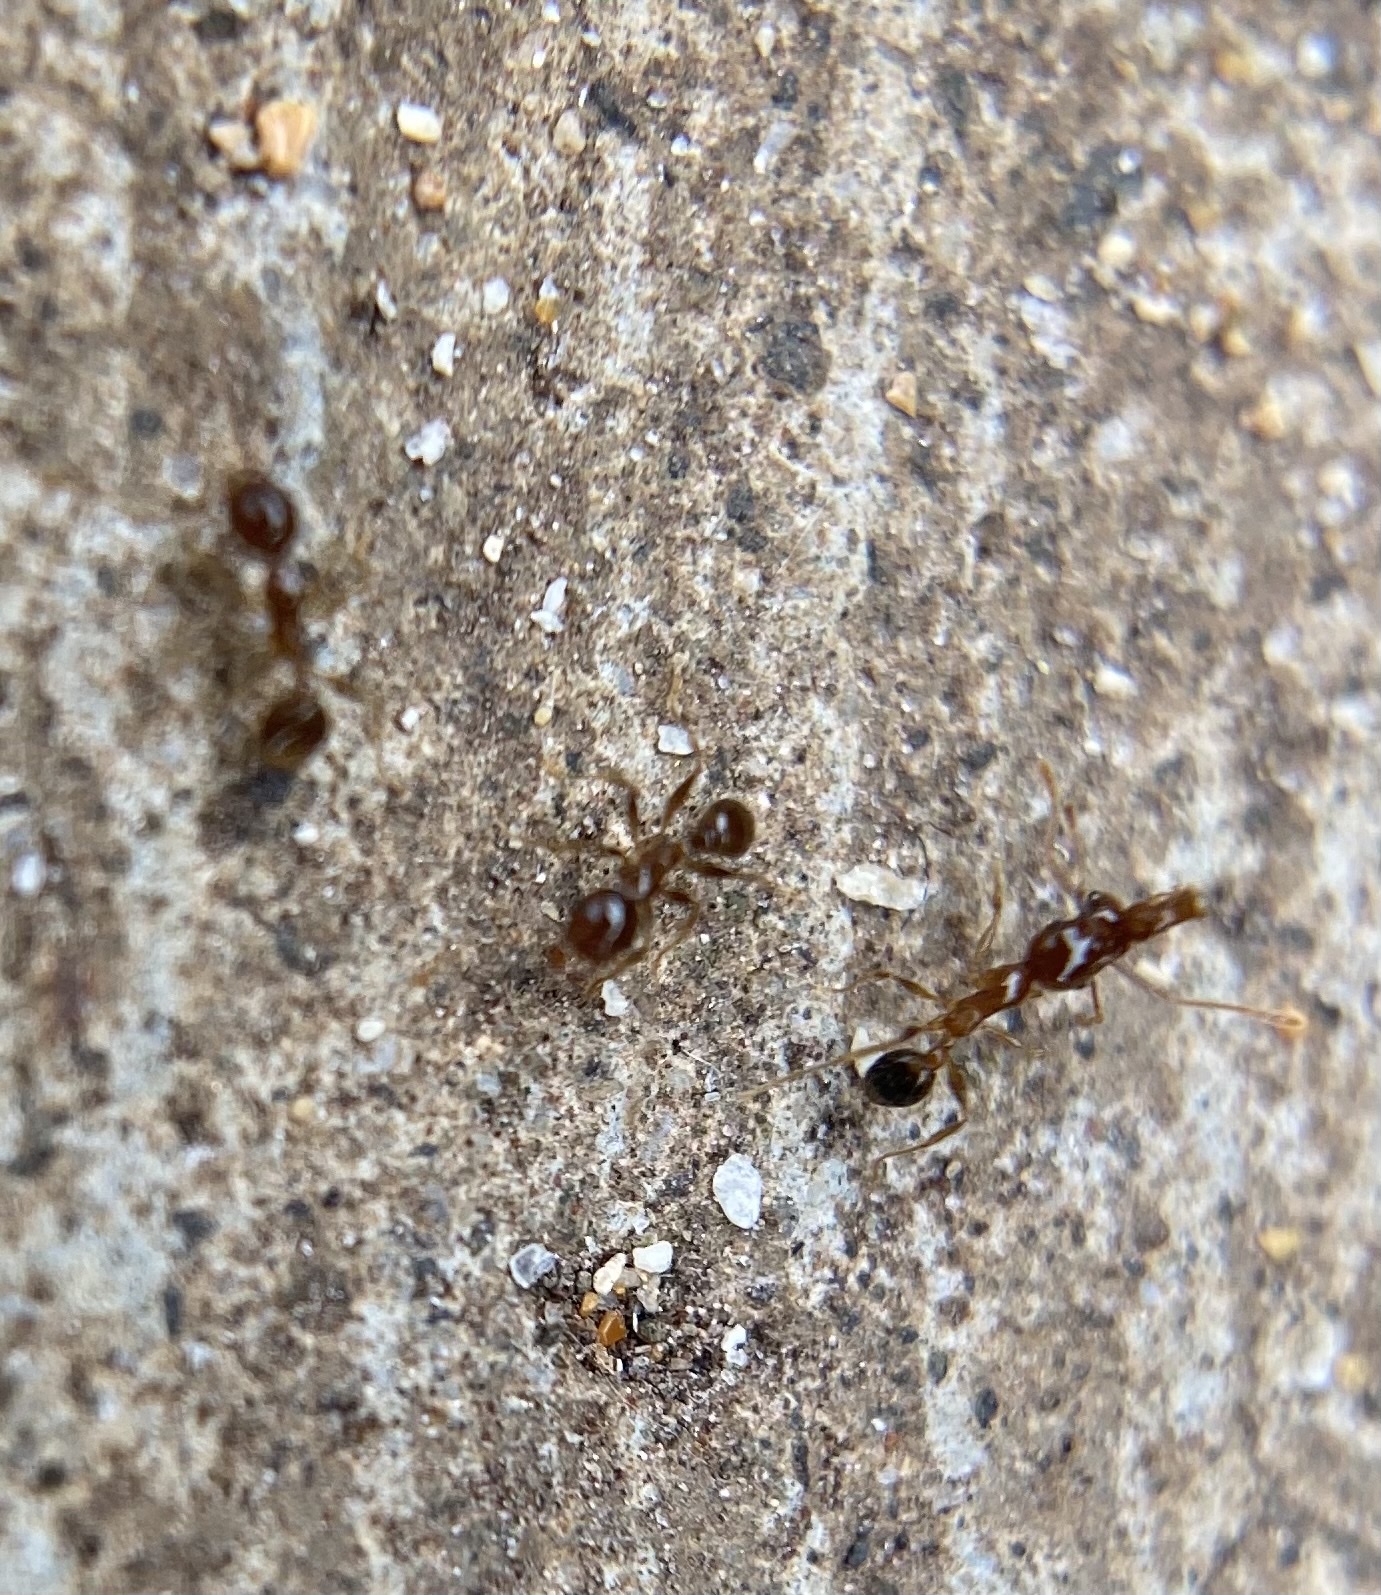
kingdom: Animalia
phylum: Arthropoda
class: Insecta
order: Hymenoptera
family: Formicidae
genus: Pheidole
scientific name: Pheidole megacephala
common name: Bigheaded ant
